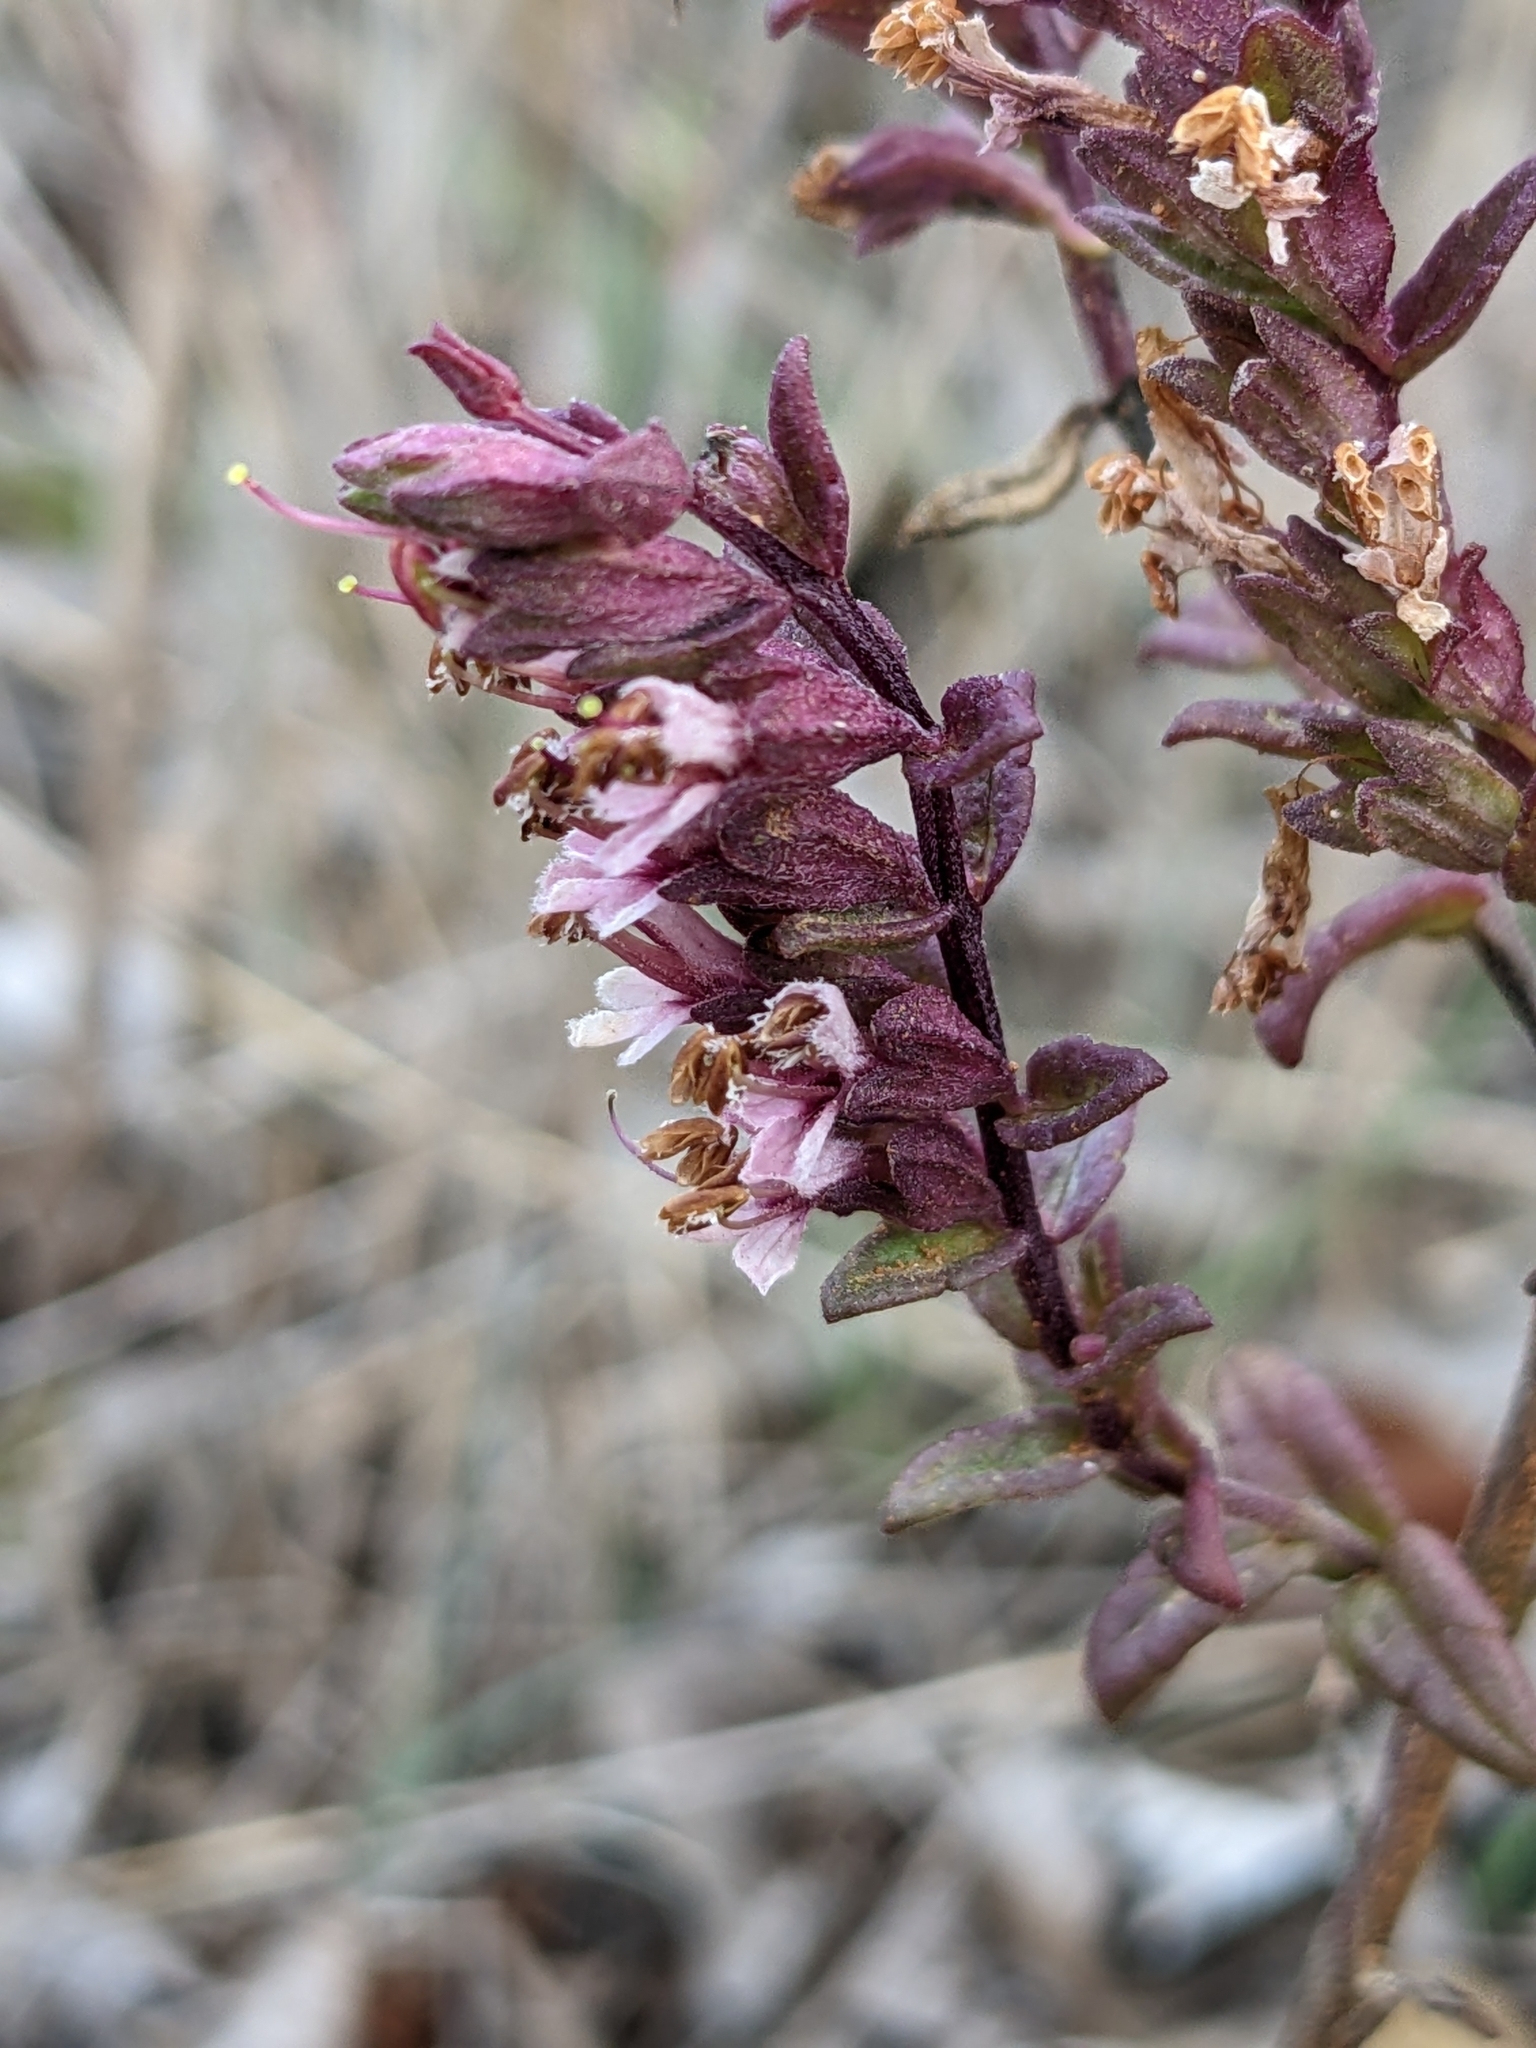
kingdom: Plantae
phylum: Tracheophyta
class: Magnoliopsida
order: Lamiales
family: Orobanchaceae
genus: Odontites
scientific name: Odontites vulgaris
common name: Broomrape
